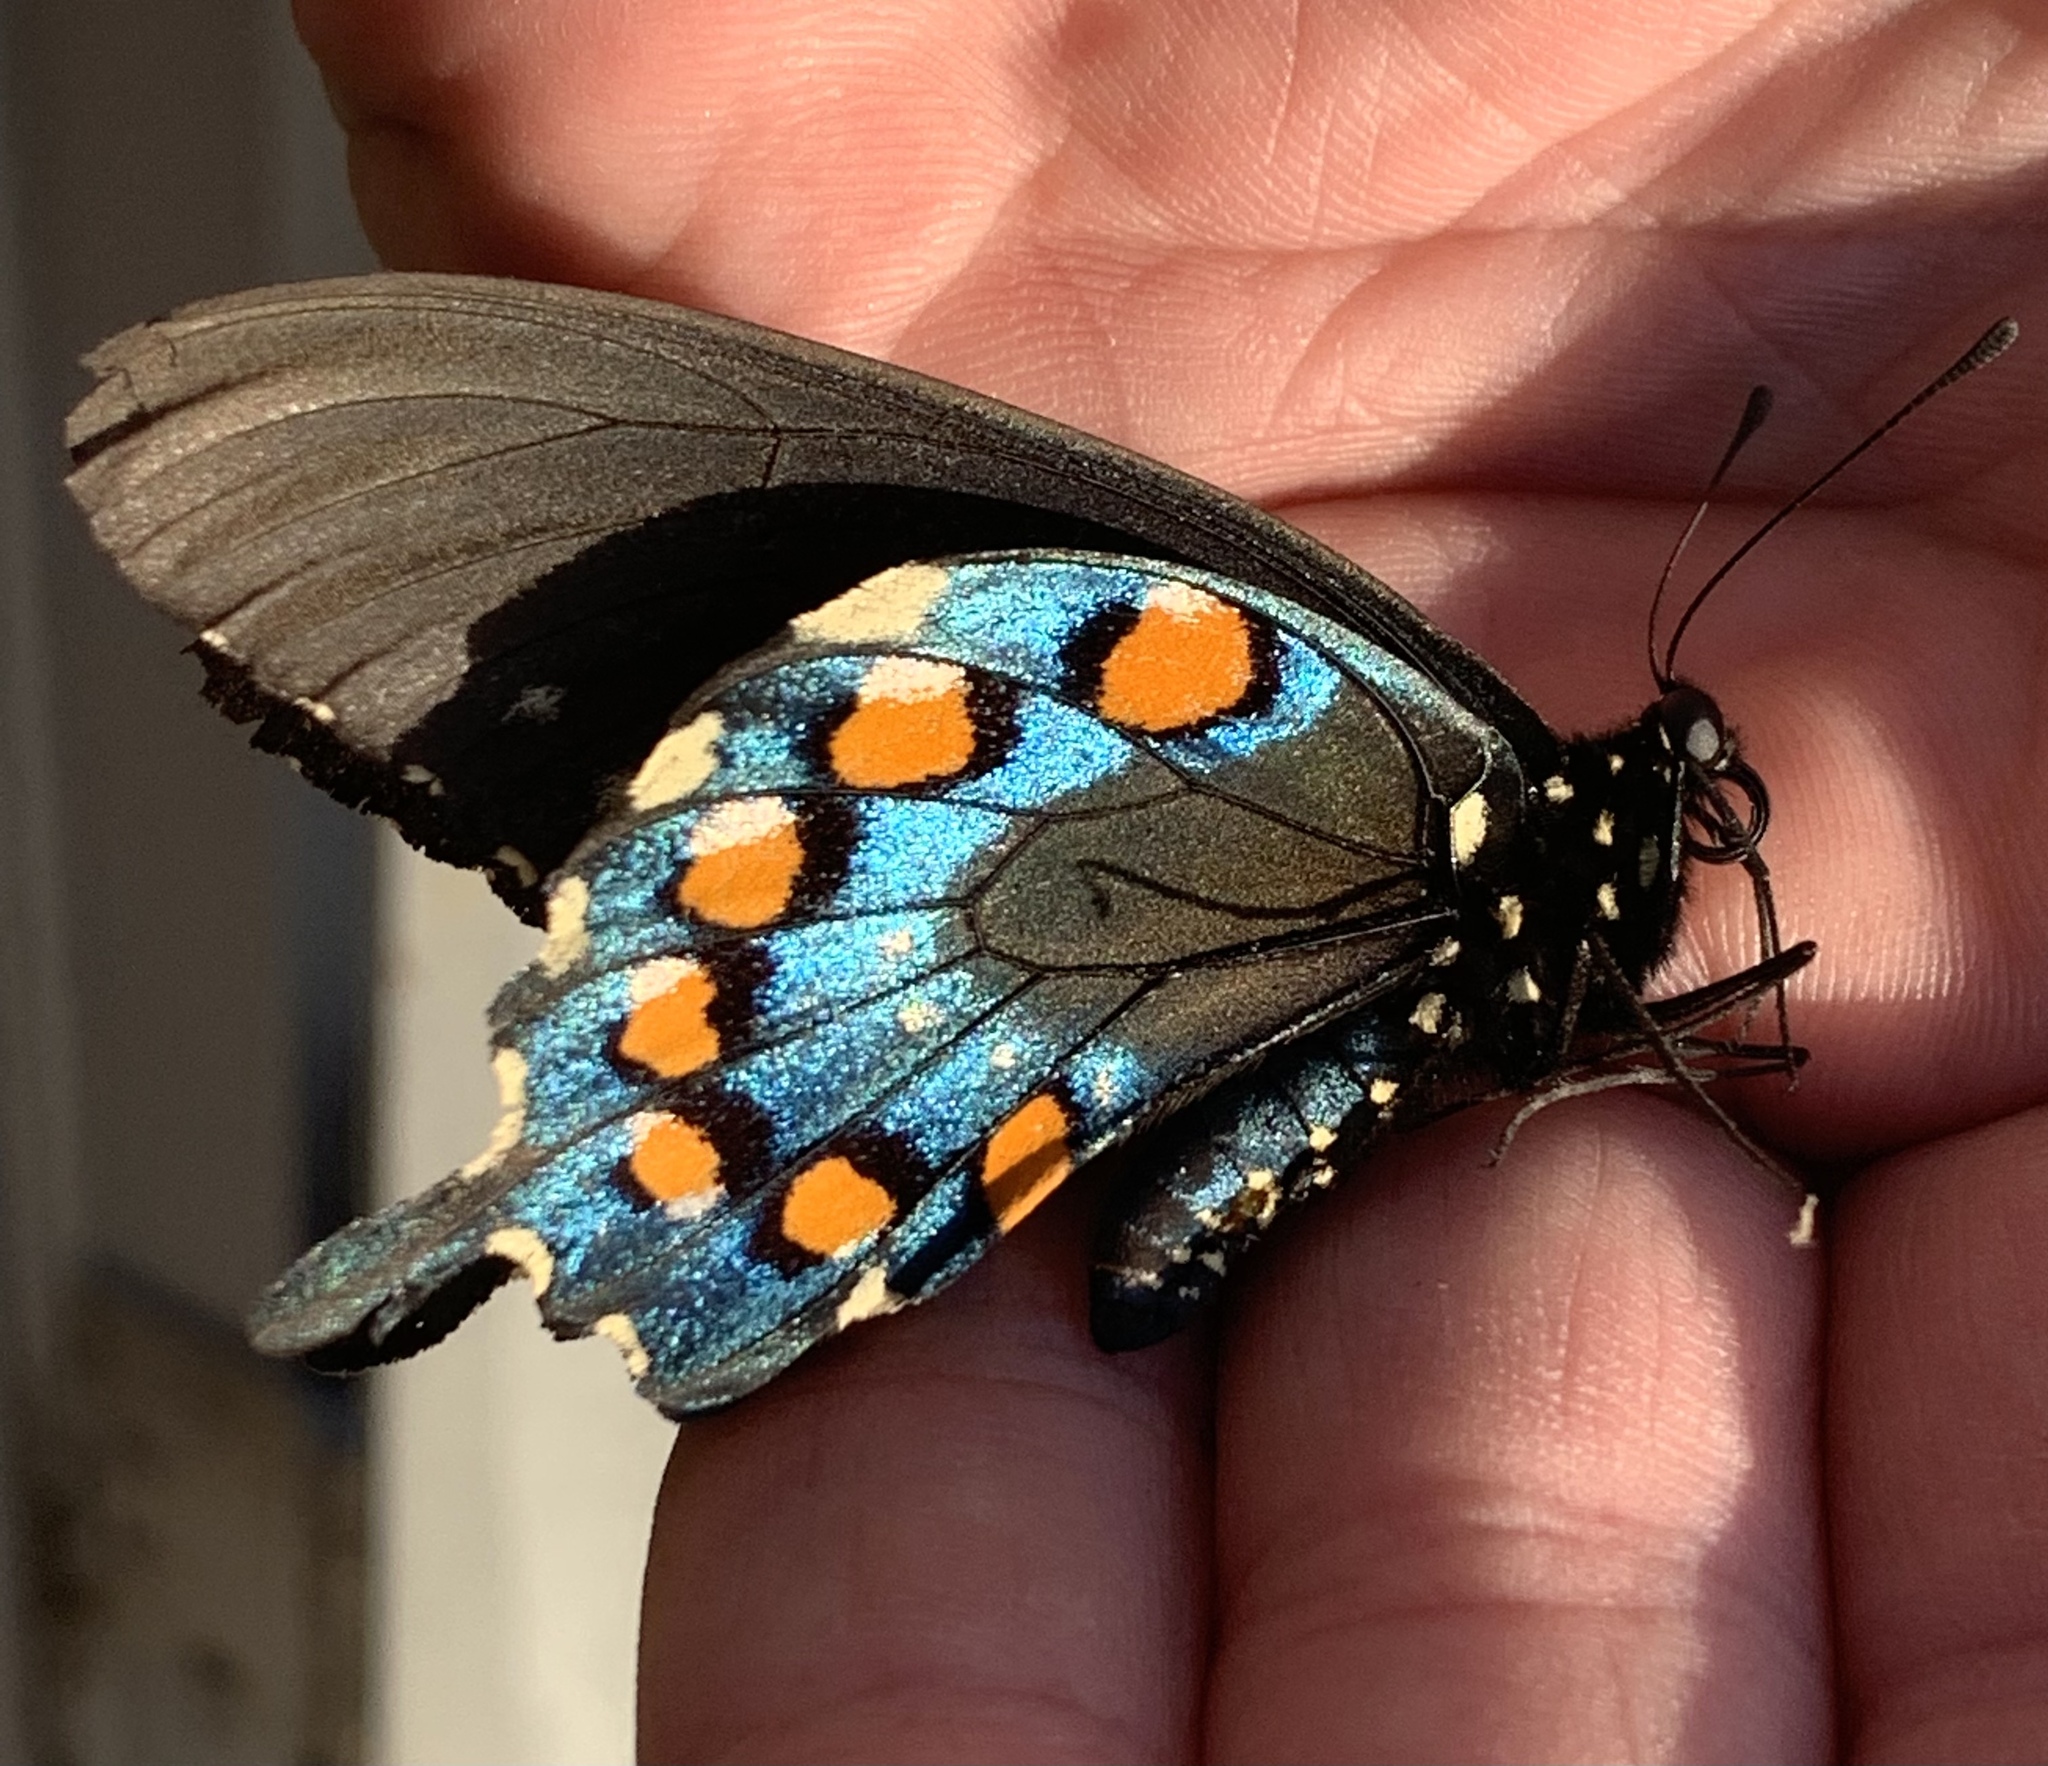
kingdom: Animalia
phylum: Arthropoda
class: Insecta
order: Lepidoptera
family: Papilionidae
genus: Battus
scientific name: Battus philenor
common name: Pipevine swallowtail
